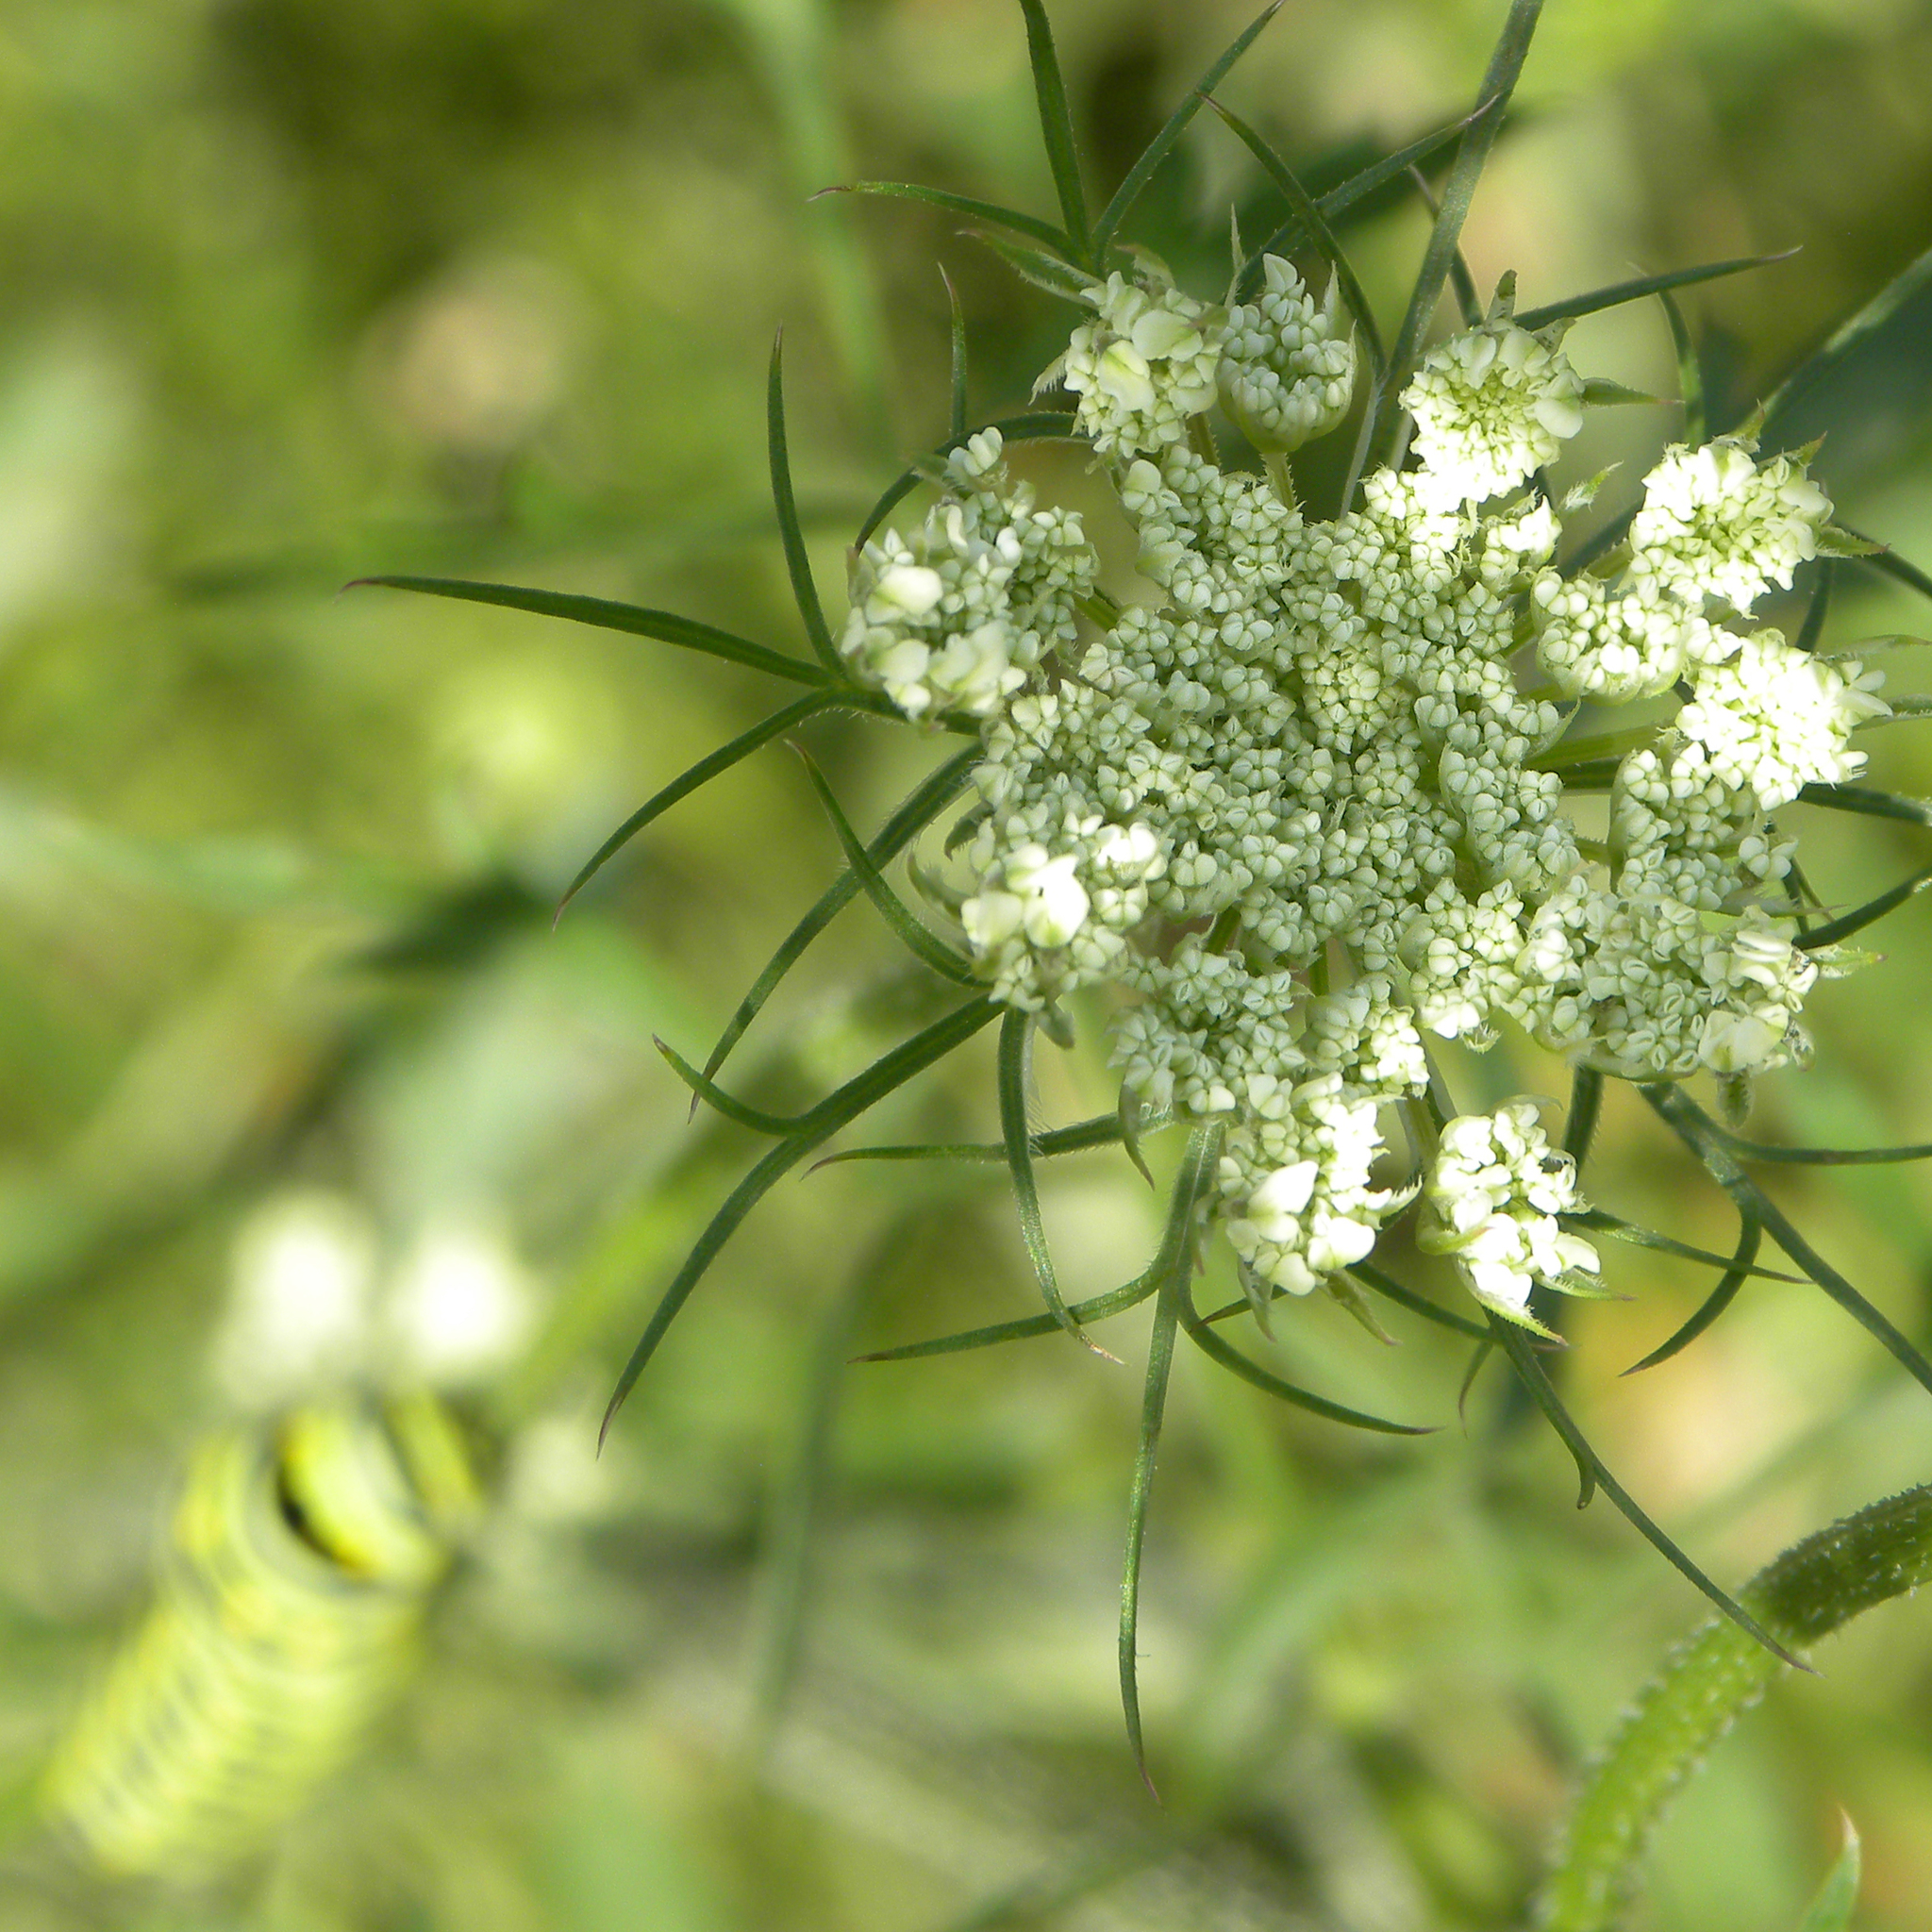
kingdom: Plantae
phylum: Tracheophyta
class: Magnoliopsida
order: Apiales
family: Apiaceae
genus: Daucus
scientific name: Daucus carota
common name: Wild carrot
